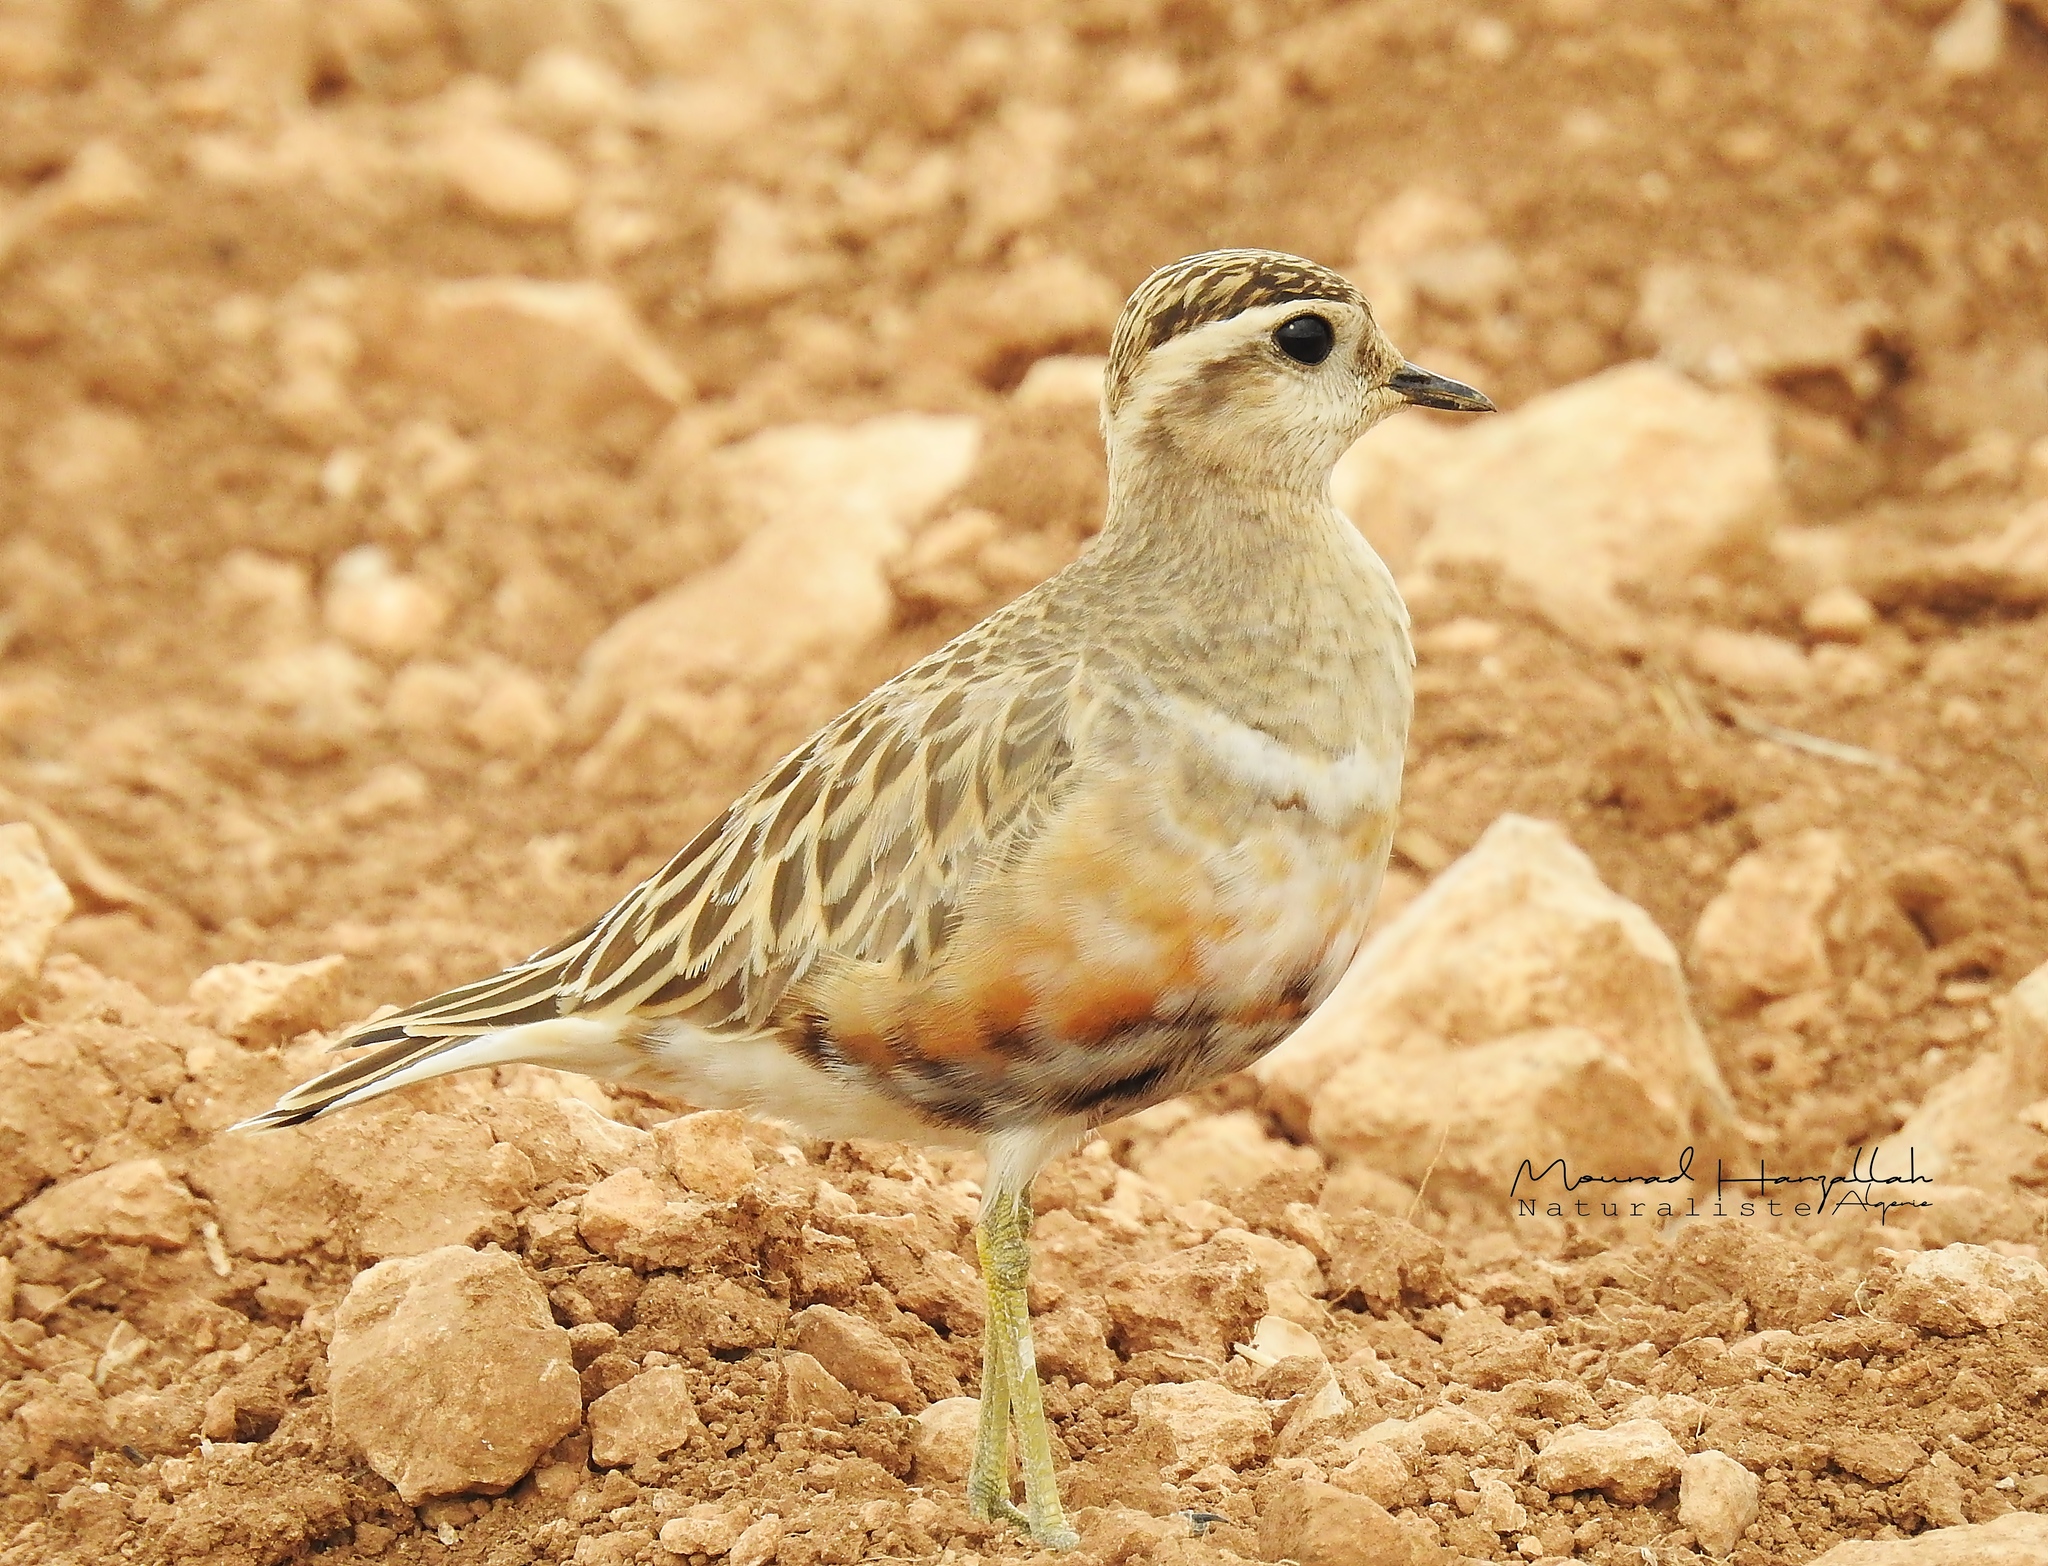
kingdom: Animalia
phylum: Chordata
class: Aves
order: Charadriiformes
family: Charadriidae
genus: Charadrius
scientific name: Charadrius morinellus
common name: Eurasian dotterel
